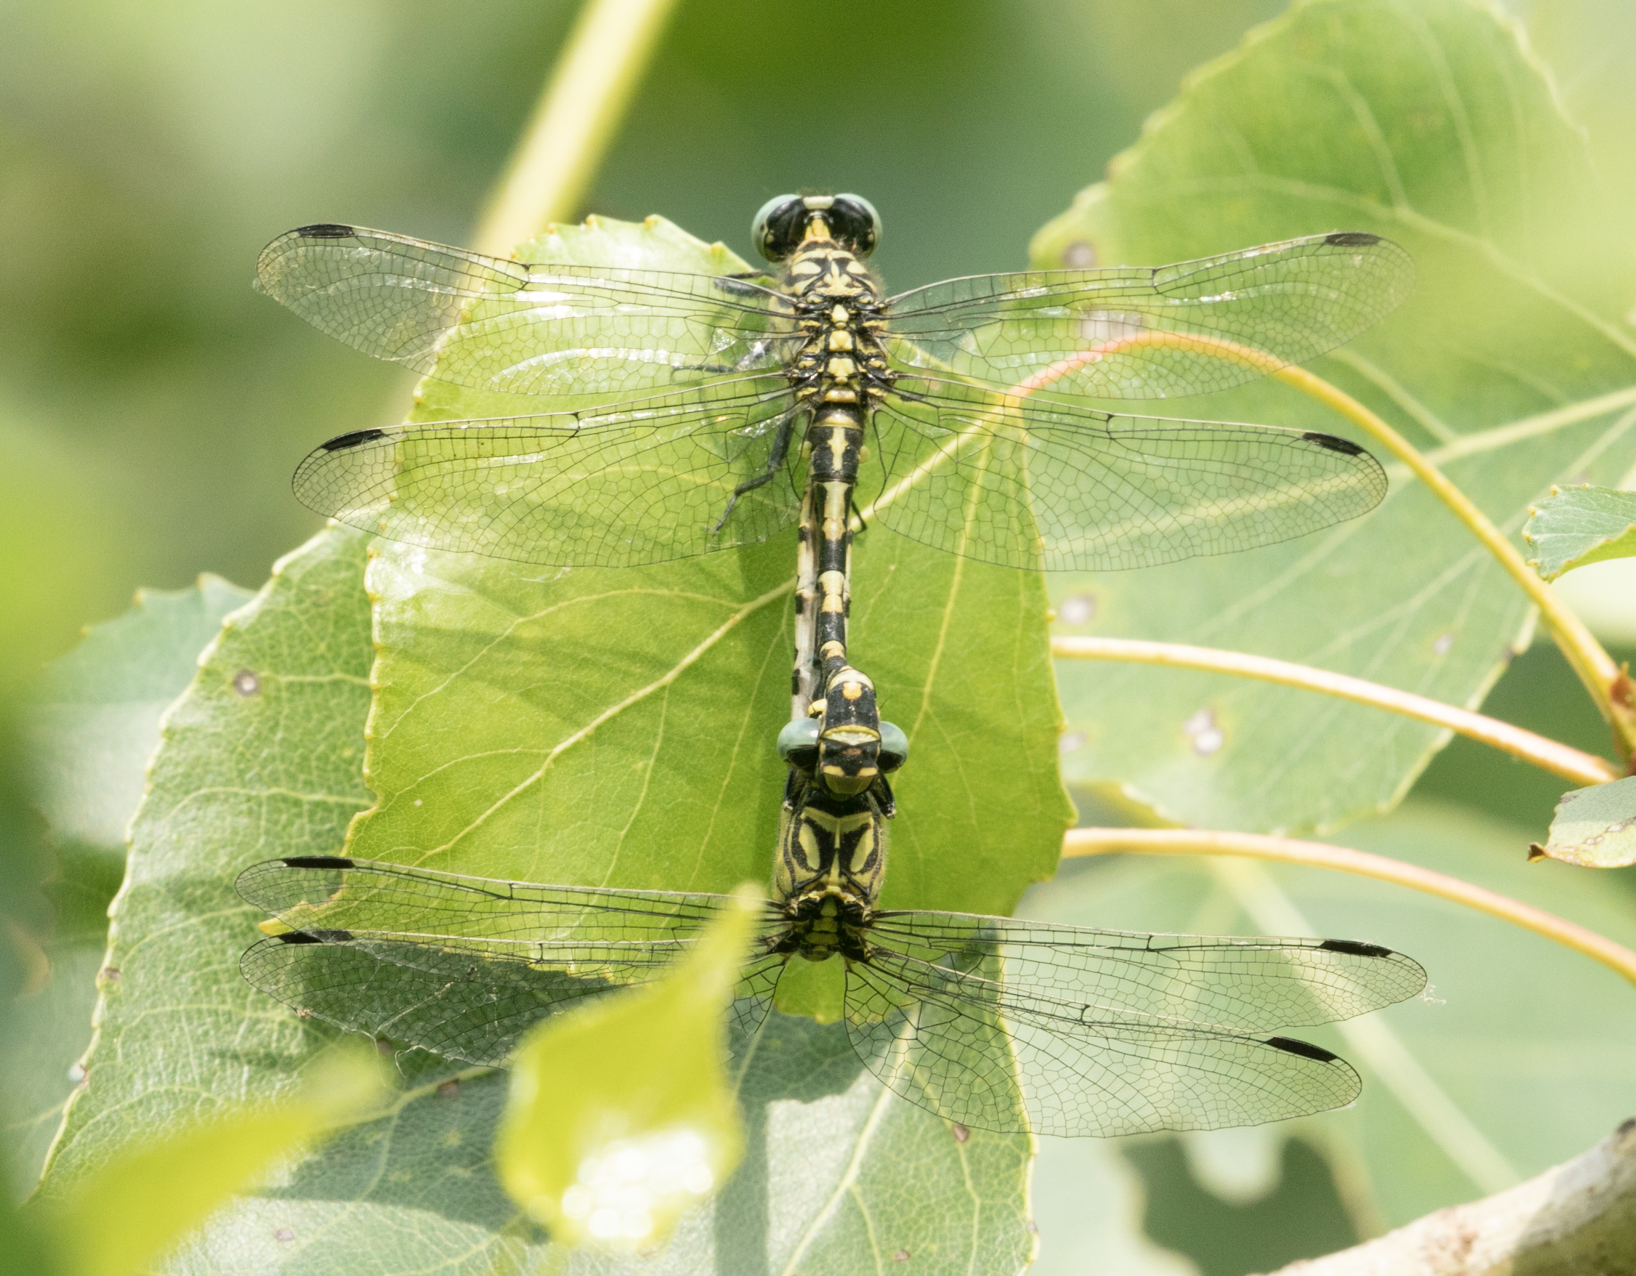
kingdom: Animalia
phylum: Arthropoda
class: Insecta
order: Odonata
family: Gomphidae
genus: Onychogomphus
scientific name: Onychogomphus forcipatus
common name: Small pincertail
